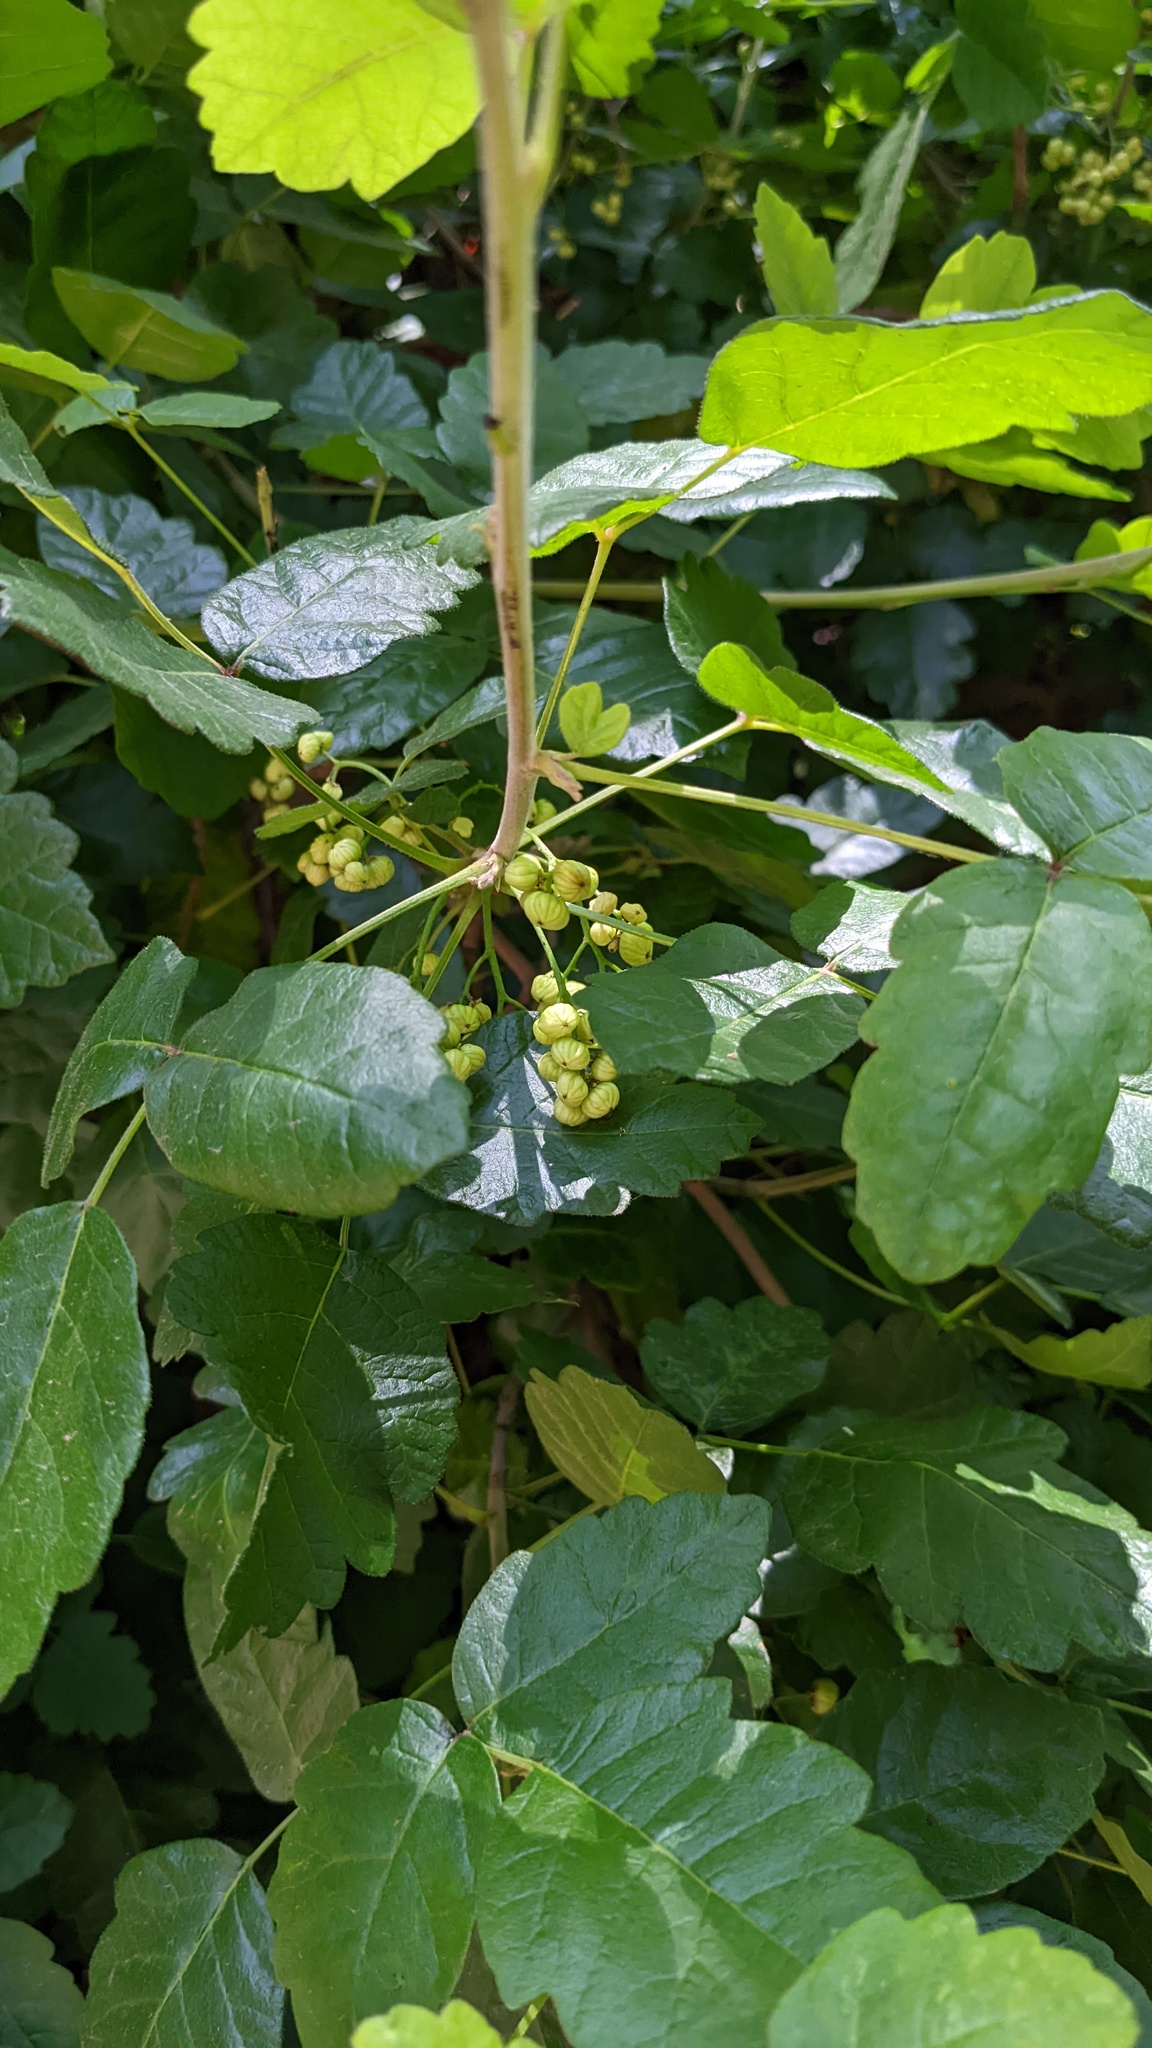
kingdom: Plantae
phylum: Tracheophyta
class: Magnoliopsida
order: Sapindales
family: Anacardiaceae
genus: Toxicodendron
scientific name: Toxicodendron diversilobum
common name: Pacific poison-oak
